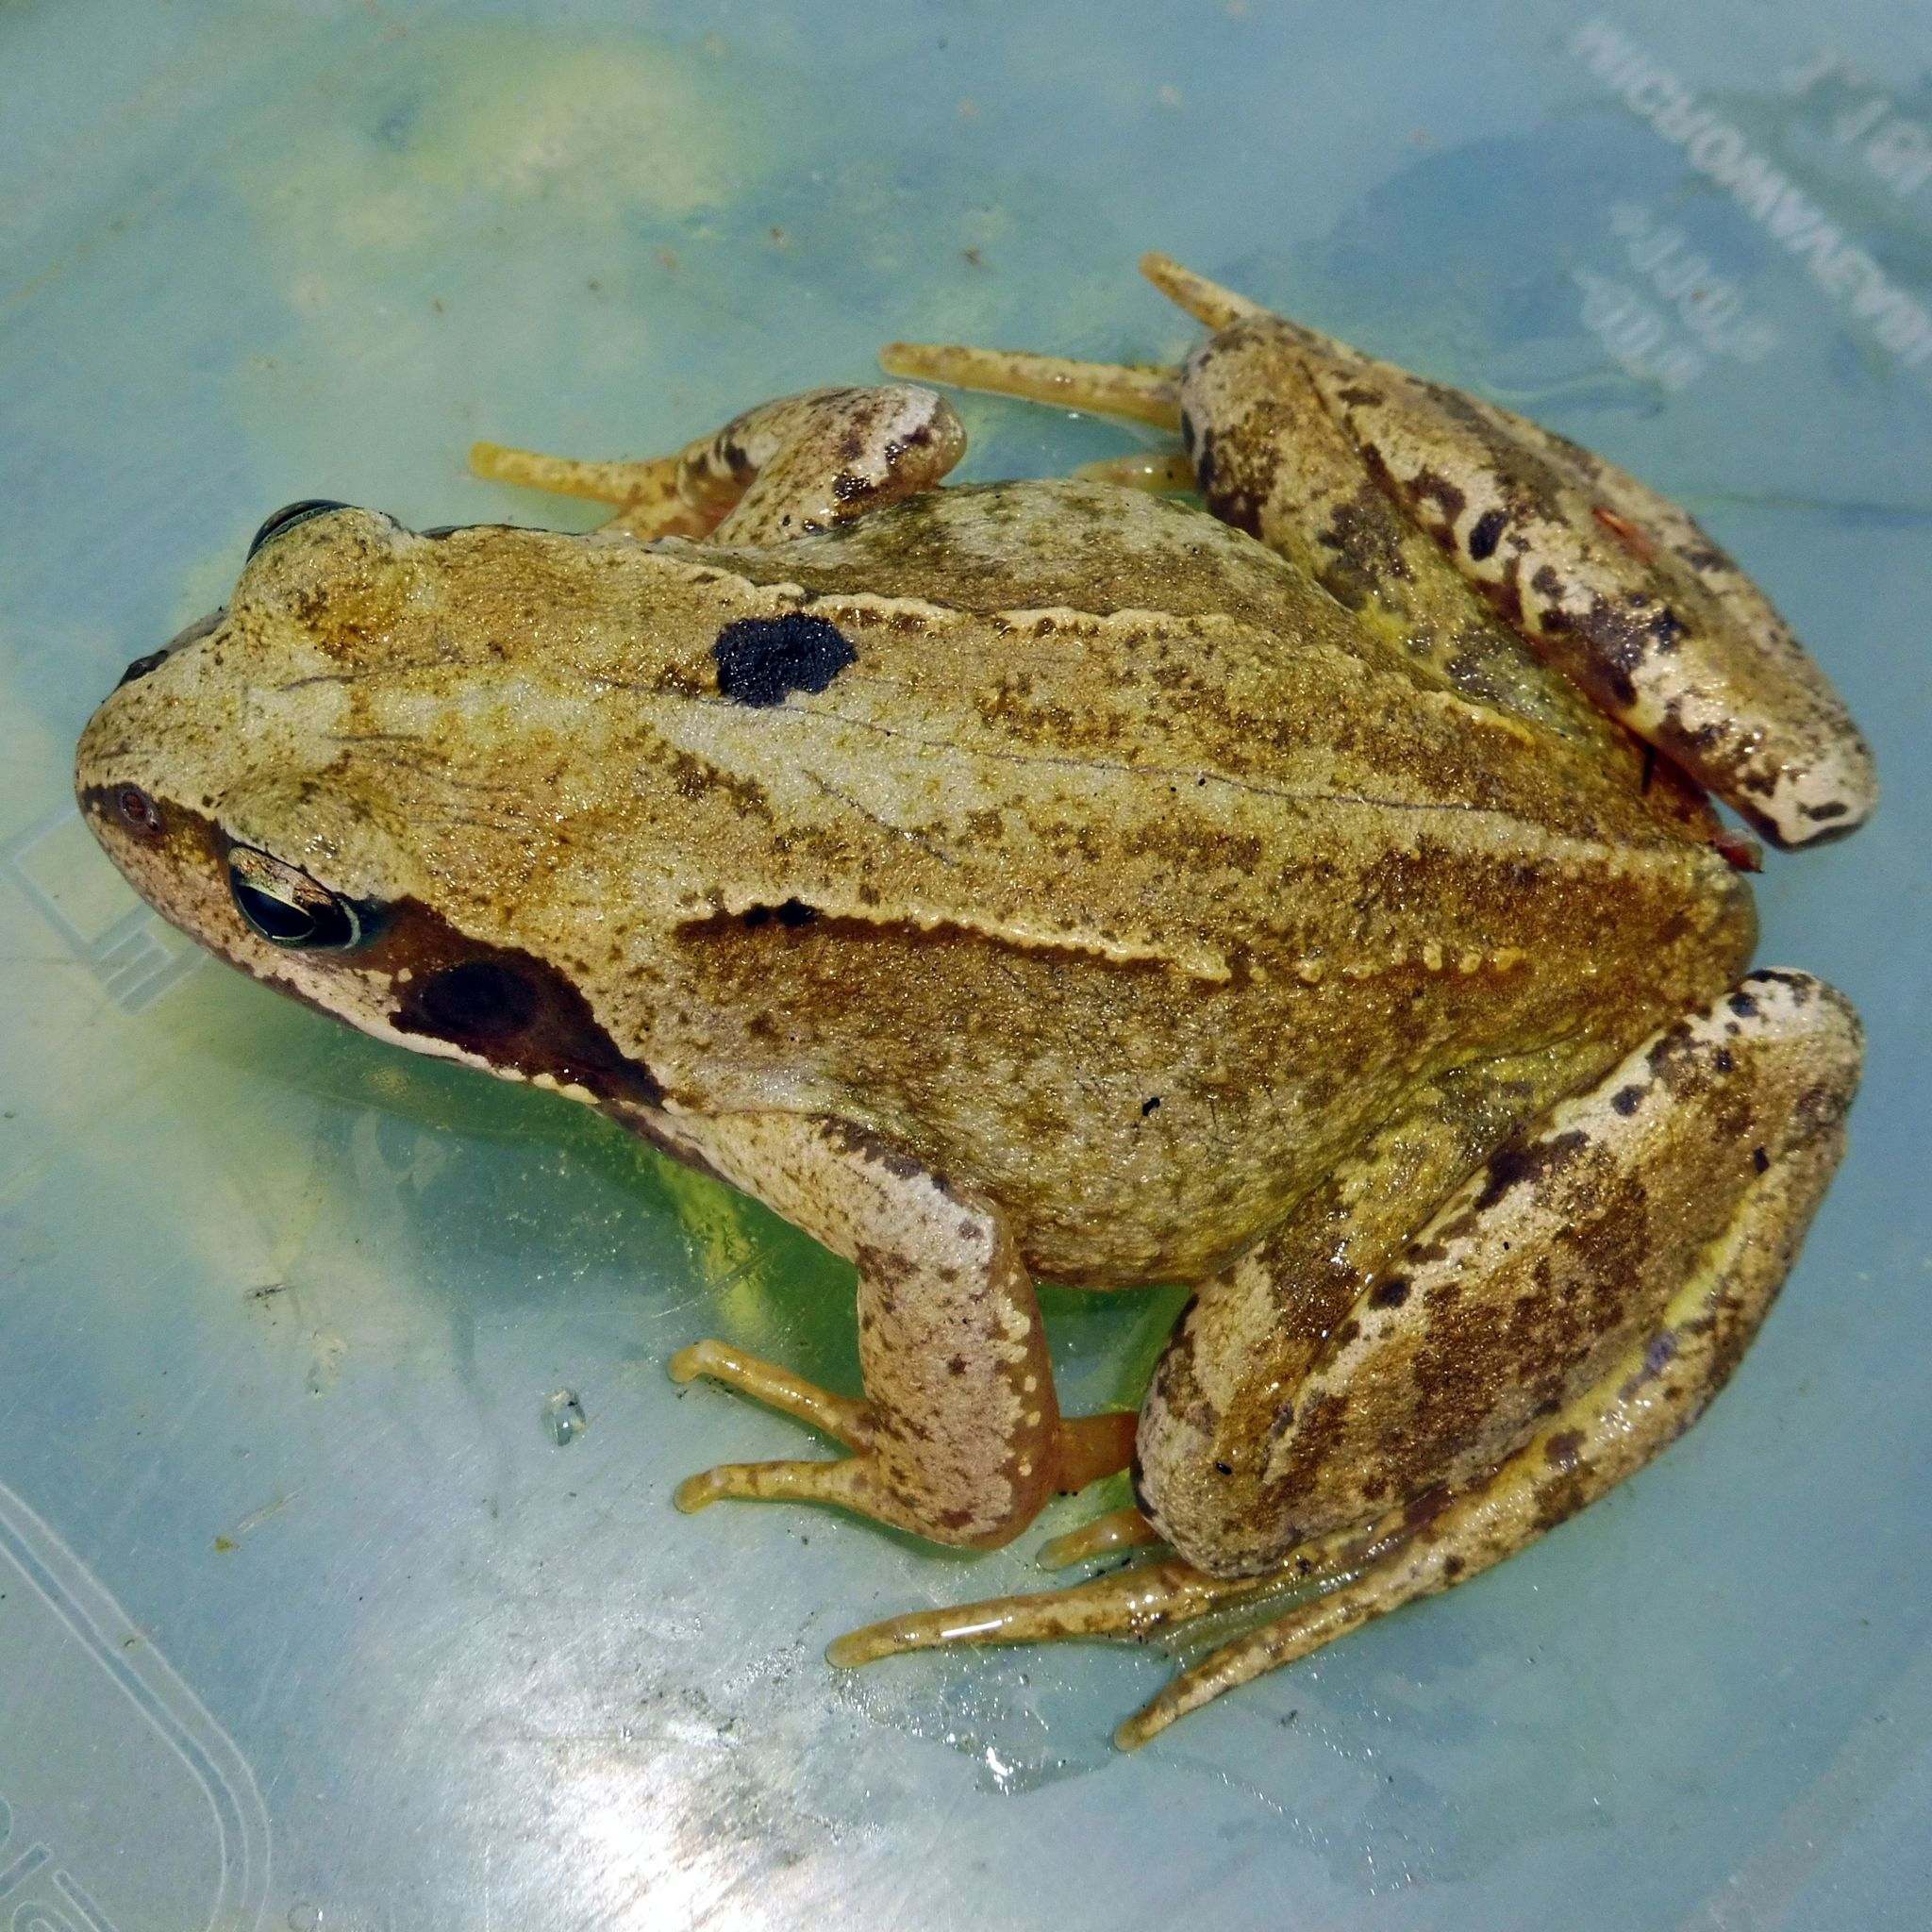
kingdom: Animalia
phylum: Chordata
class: Amphibia
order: Anura
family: Ranidae
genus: Rana
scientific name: Rana temporaria
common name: Common frog
